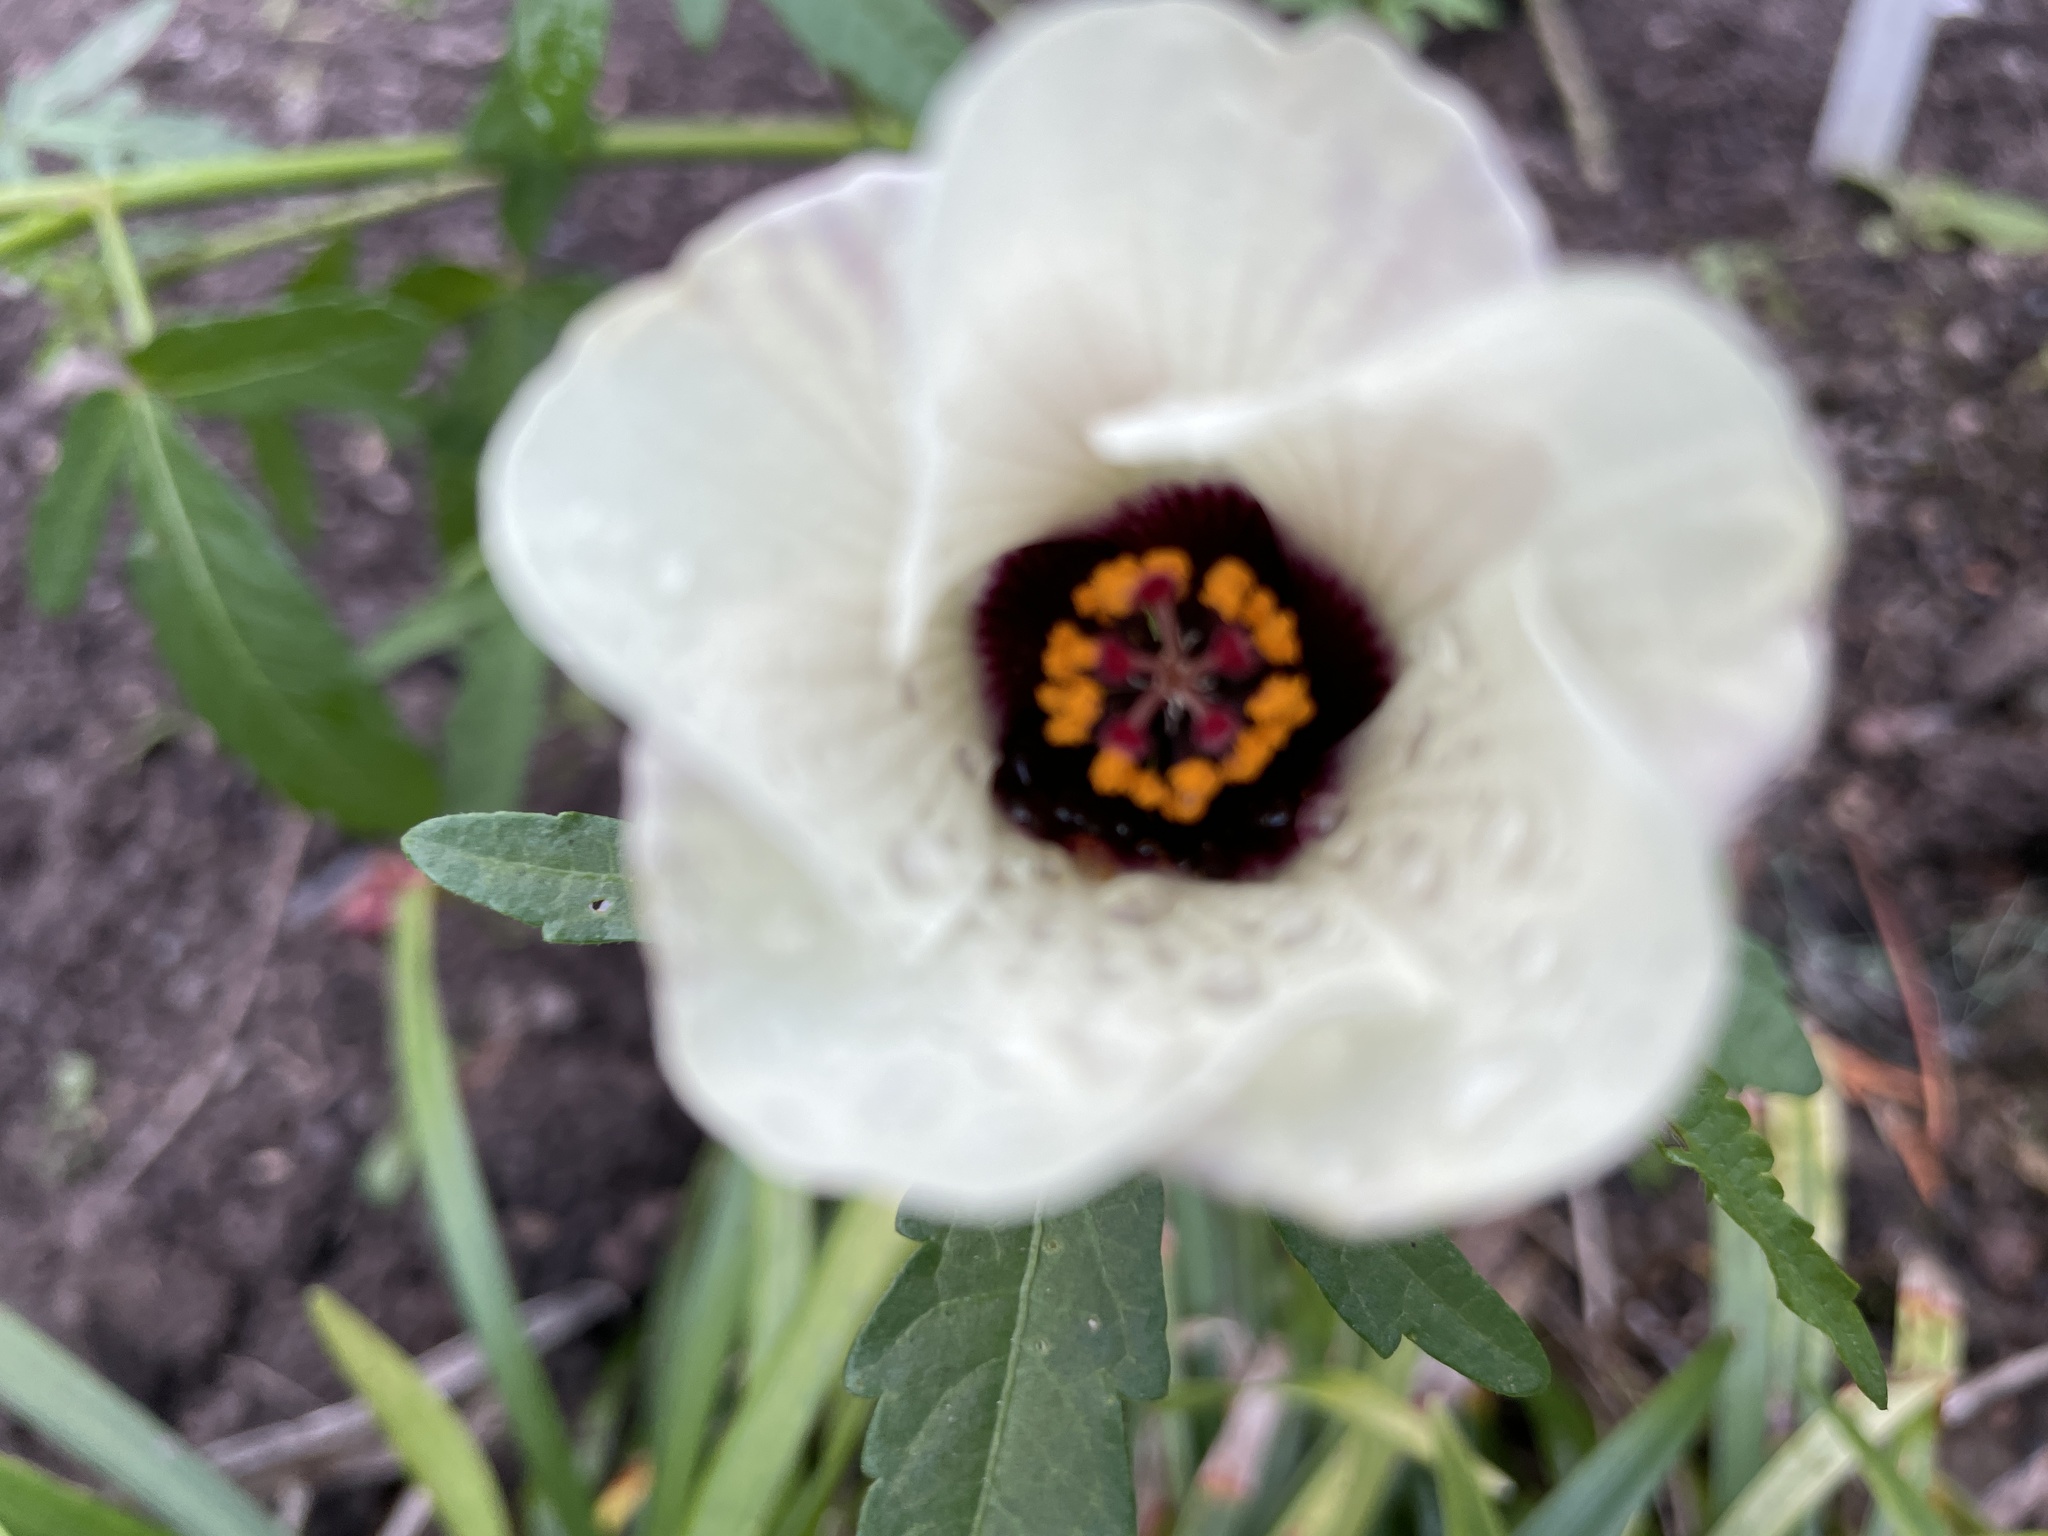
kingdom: Plantae
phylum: Tracheophyta
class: Magnoliopsida
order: Malvales
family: Malvaceae
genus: Hibiscus
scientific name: Hibiscus trionum
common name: Bladder ketmia
